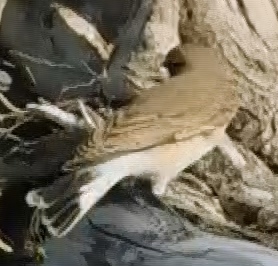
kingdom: Animalia
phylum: Chordata
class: Aves
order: Passeriformes
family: Muscicapidae
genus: Oenanthe
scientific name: Oenanthe isabellina
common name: Isabelline wheatear
